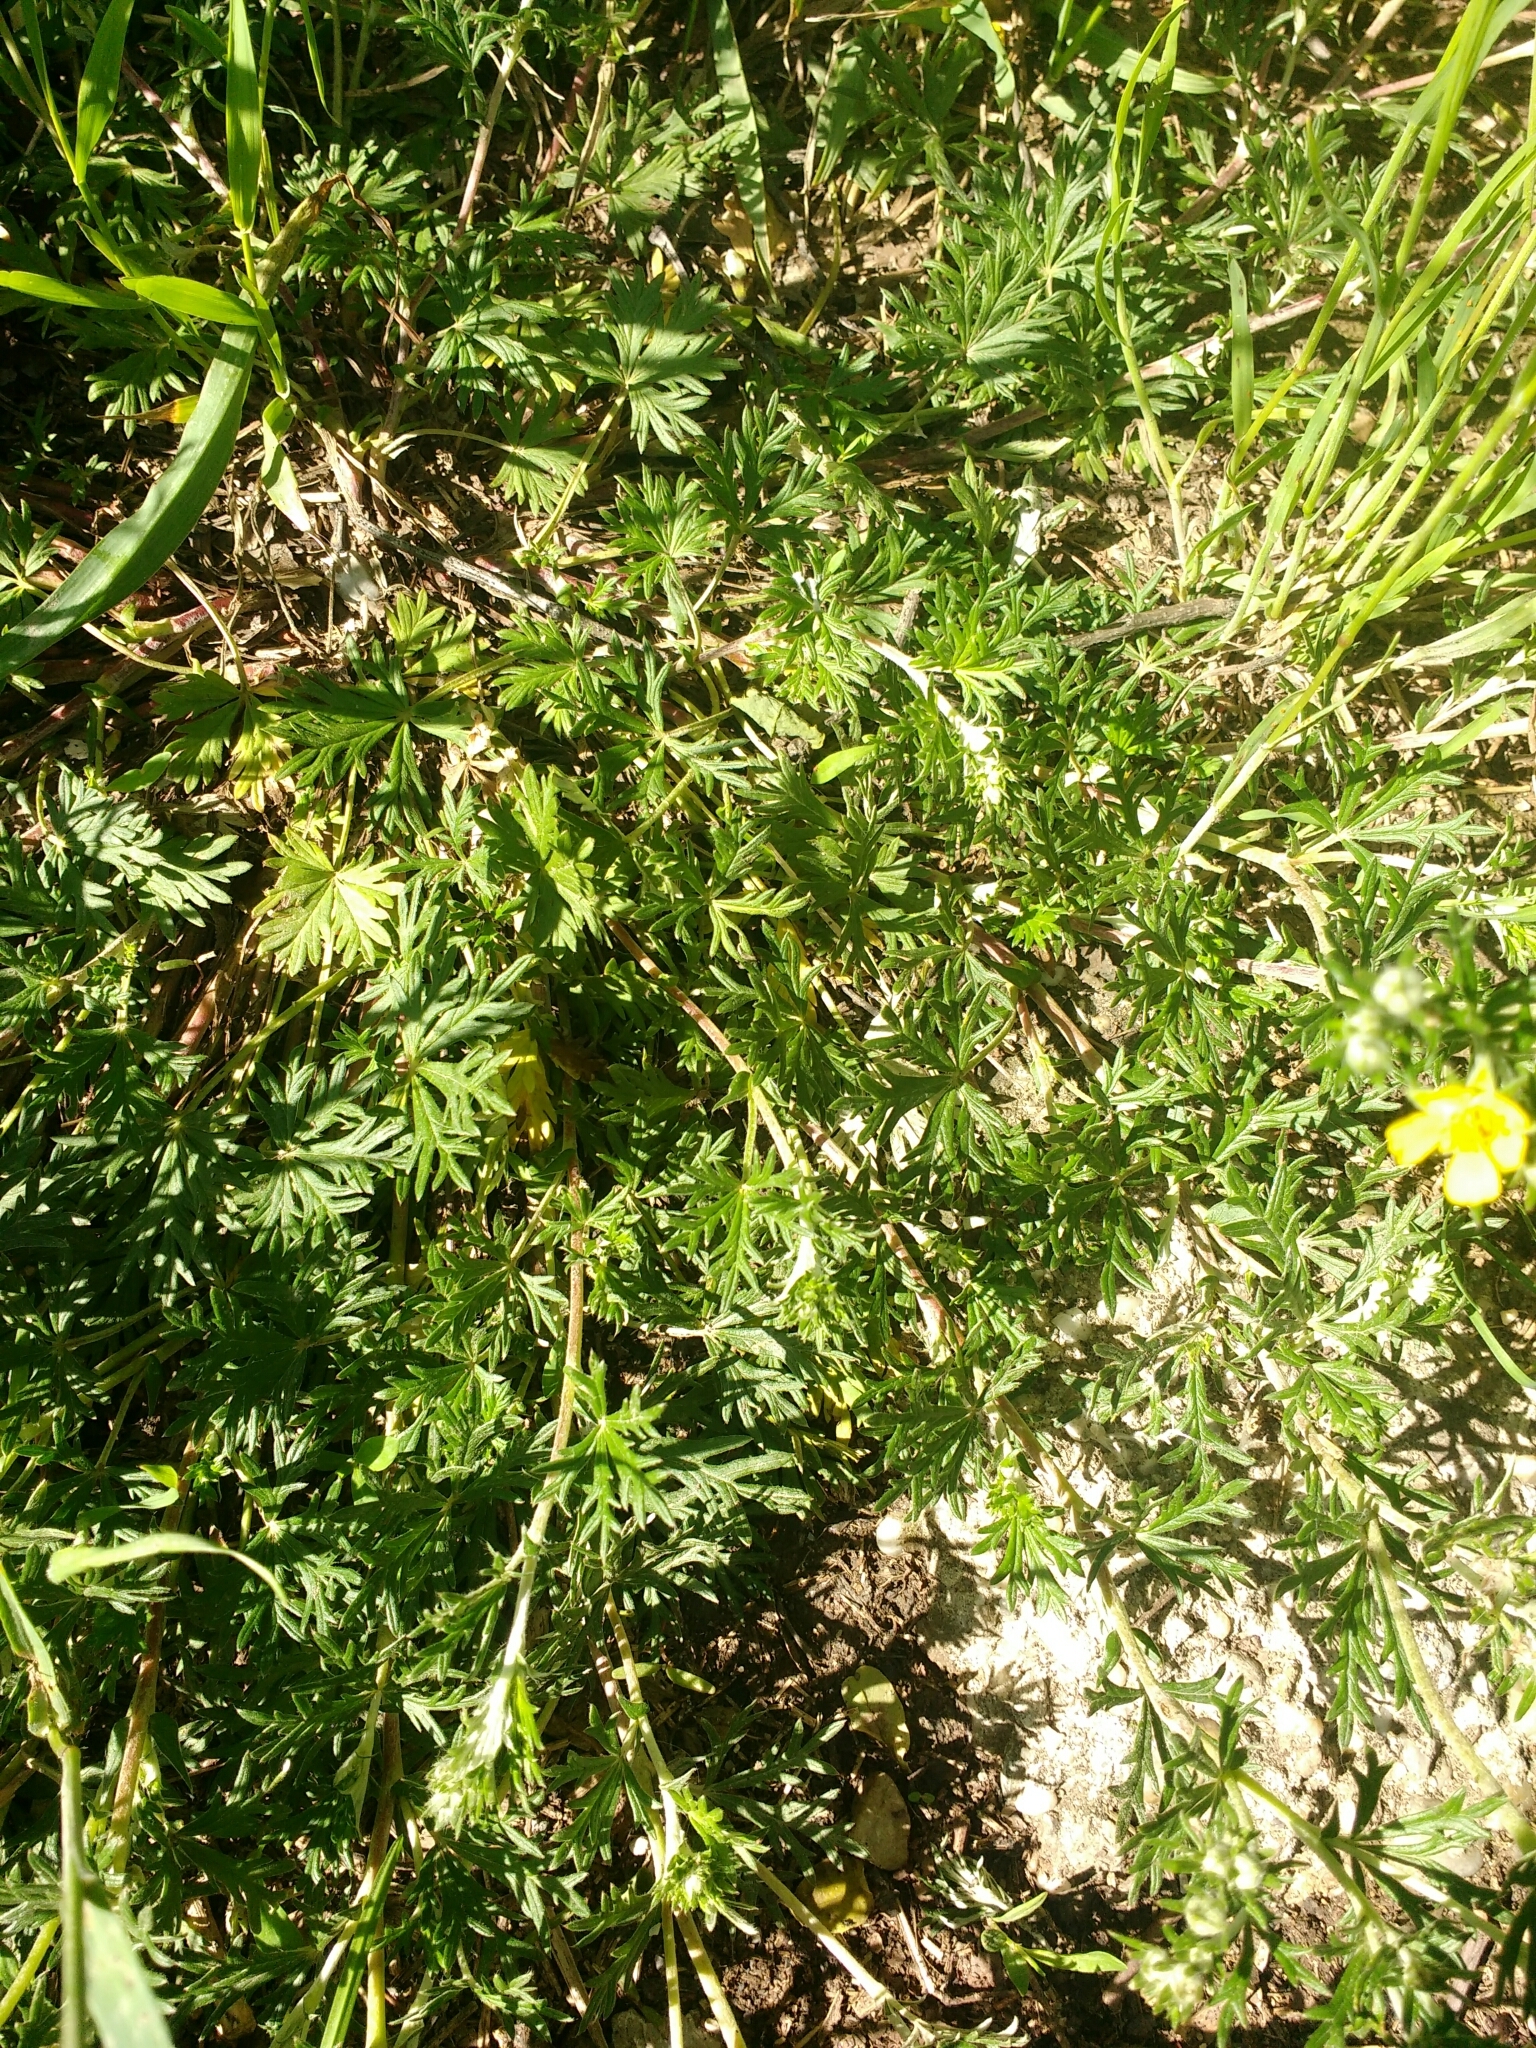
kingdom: Plantae
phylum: Tracheophyta
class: Magnoliopsida
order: Rosales
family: Rosaceae
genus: Potentilla
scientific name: Potentilla argentea
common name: Hoary cinquefoil
